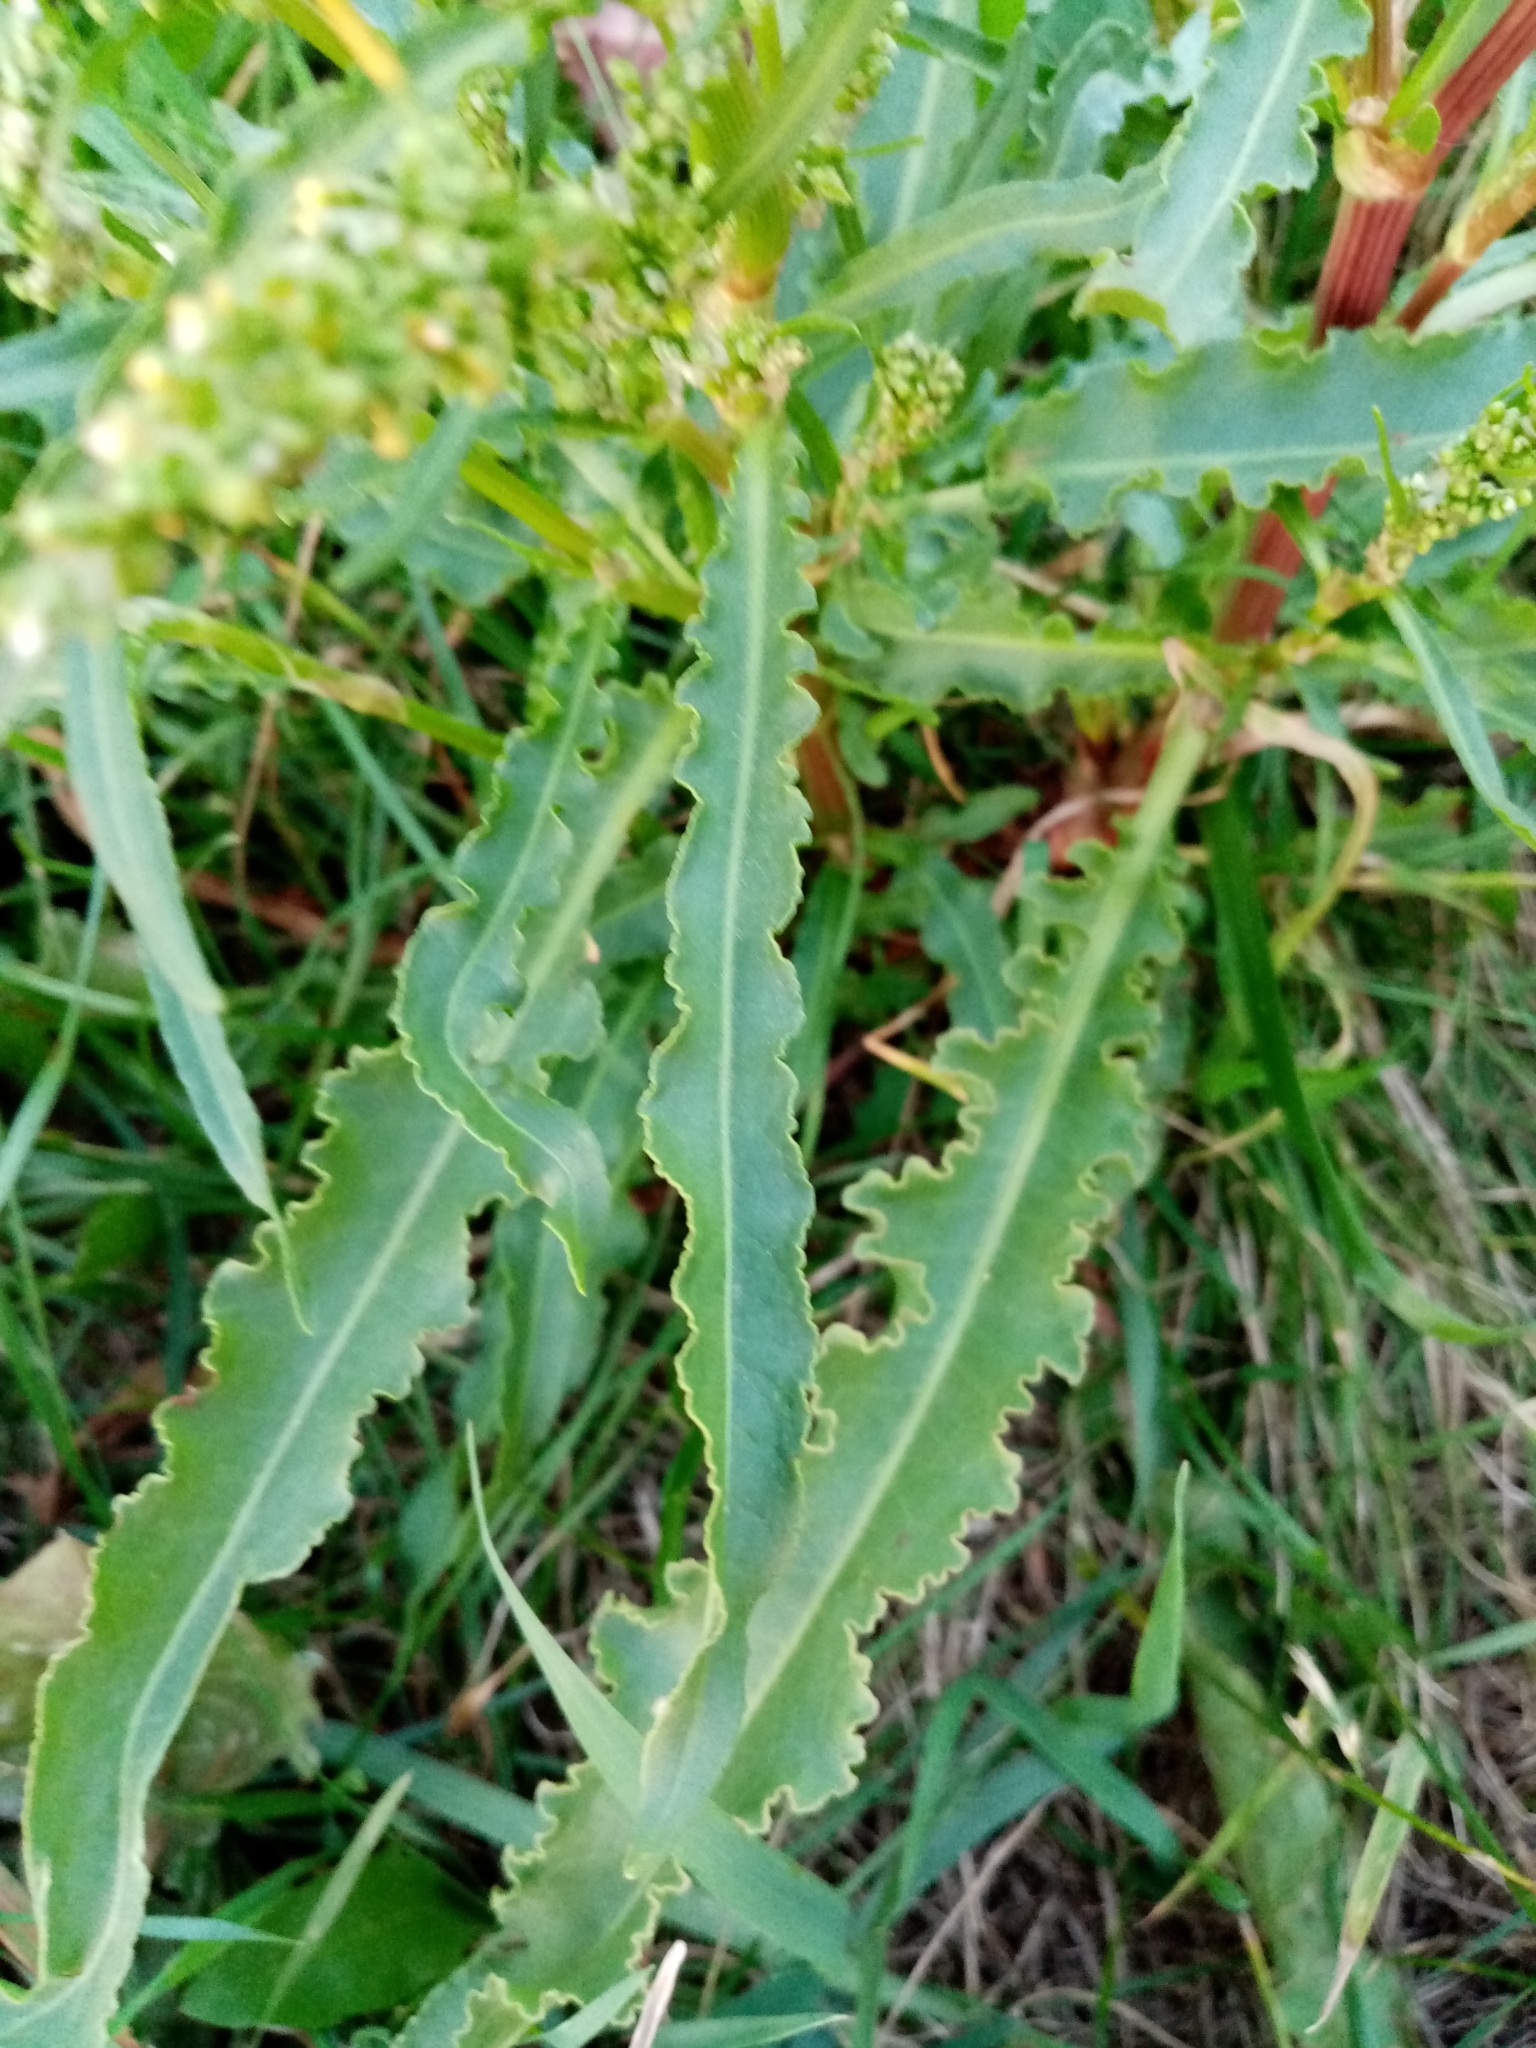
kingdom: Plantae
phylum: Tracheophyta
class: Magnoliopsida
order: Caryophyllales
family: Polygonaceae
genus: Rumex
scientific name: Rumex pseudonatronatus
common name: Field dock
